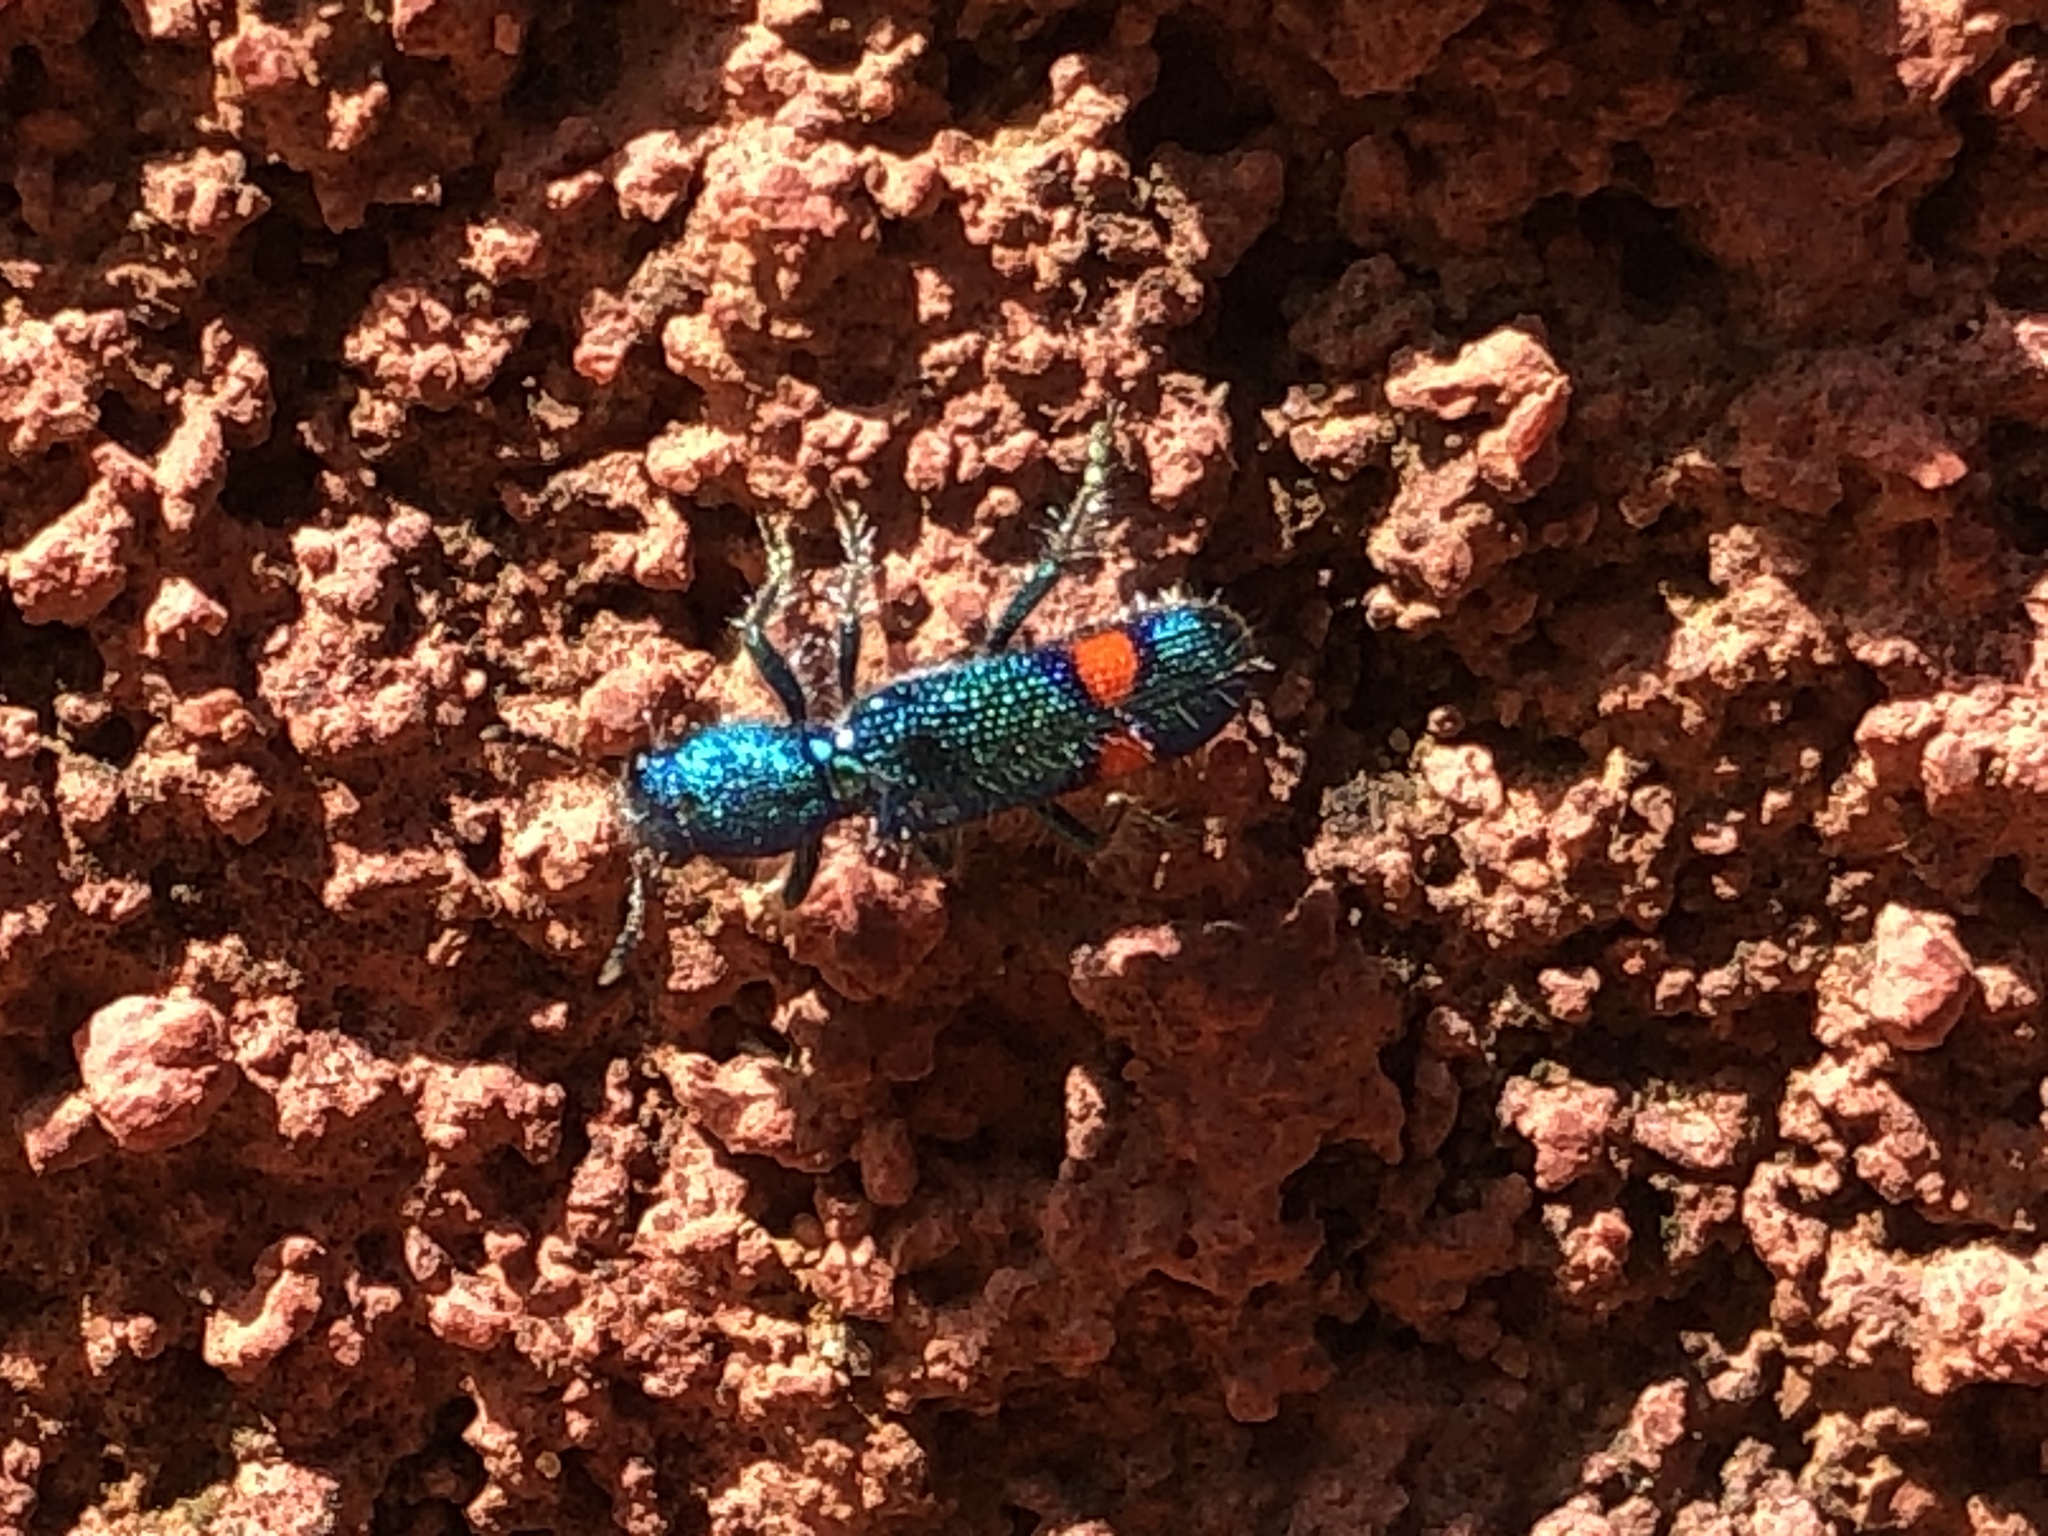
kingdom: Animalia
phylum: Arthropoda
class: Insecta
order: Coleoptera
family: Cleridae
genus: Trichodes
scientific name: Trichodes penicillatus
